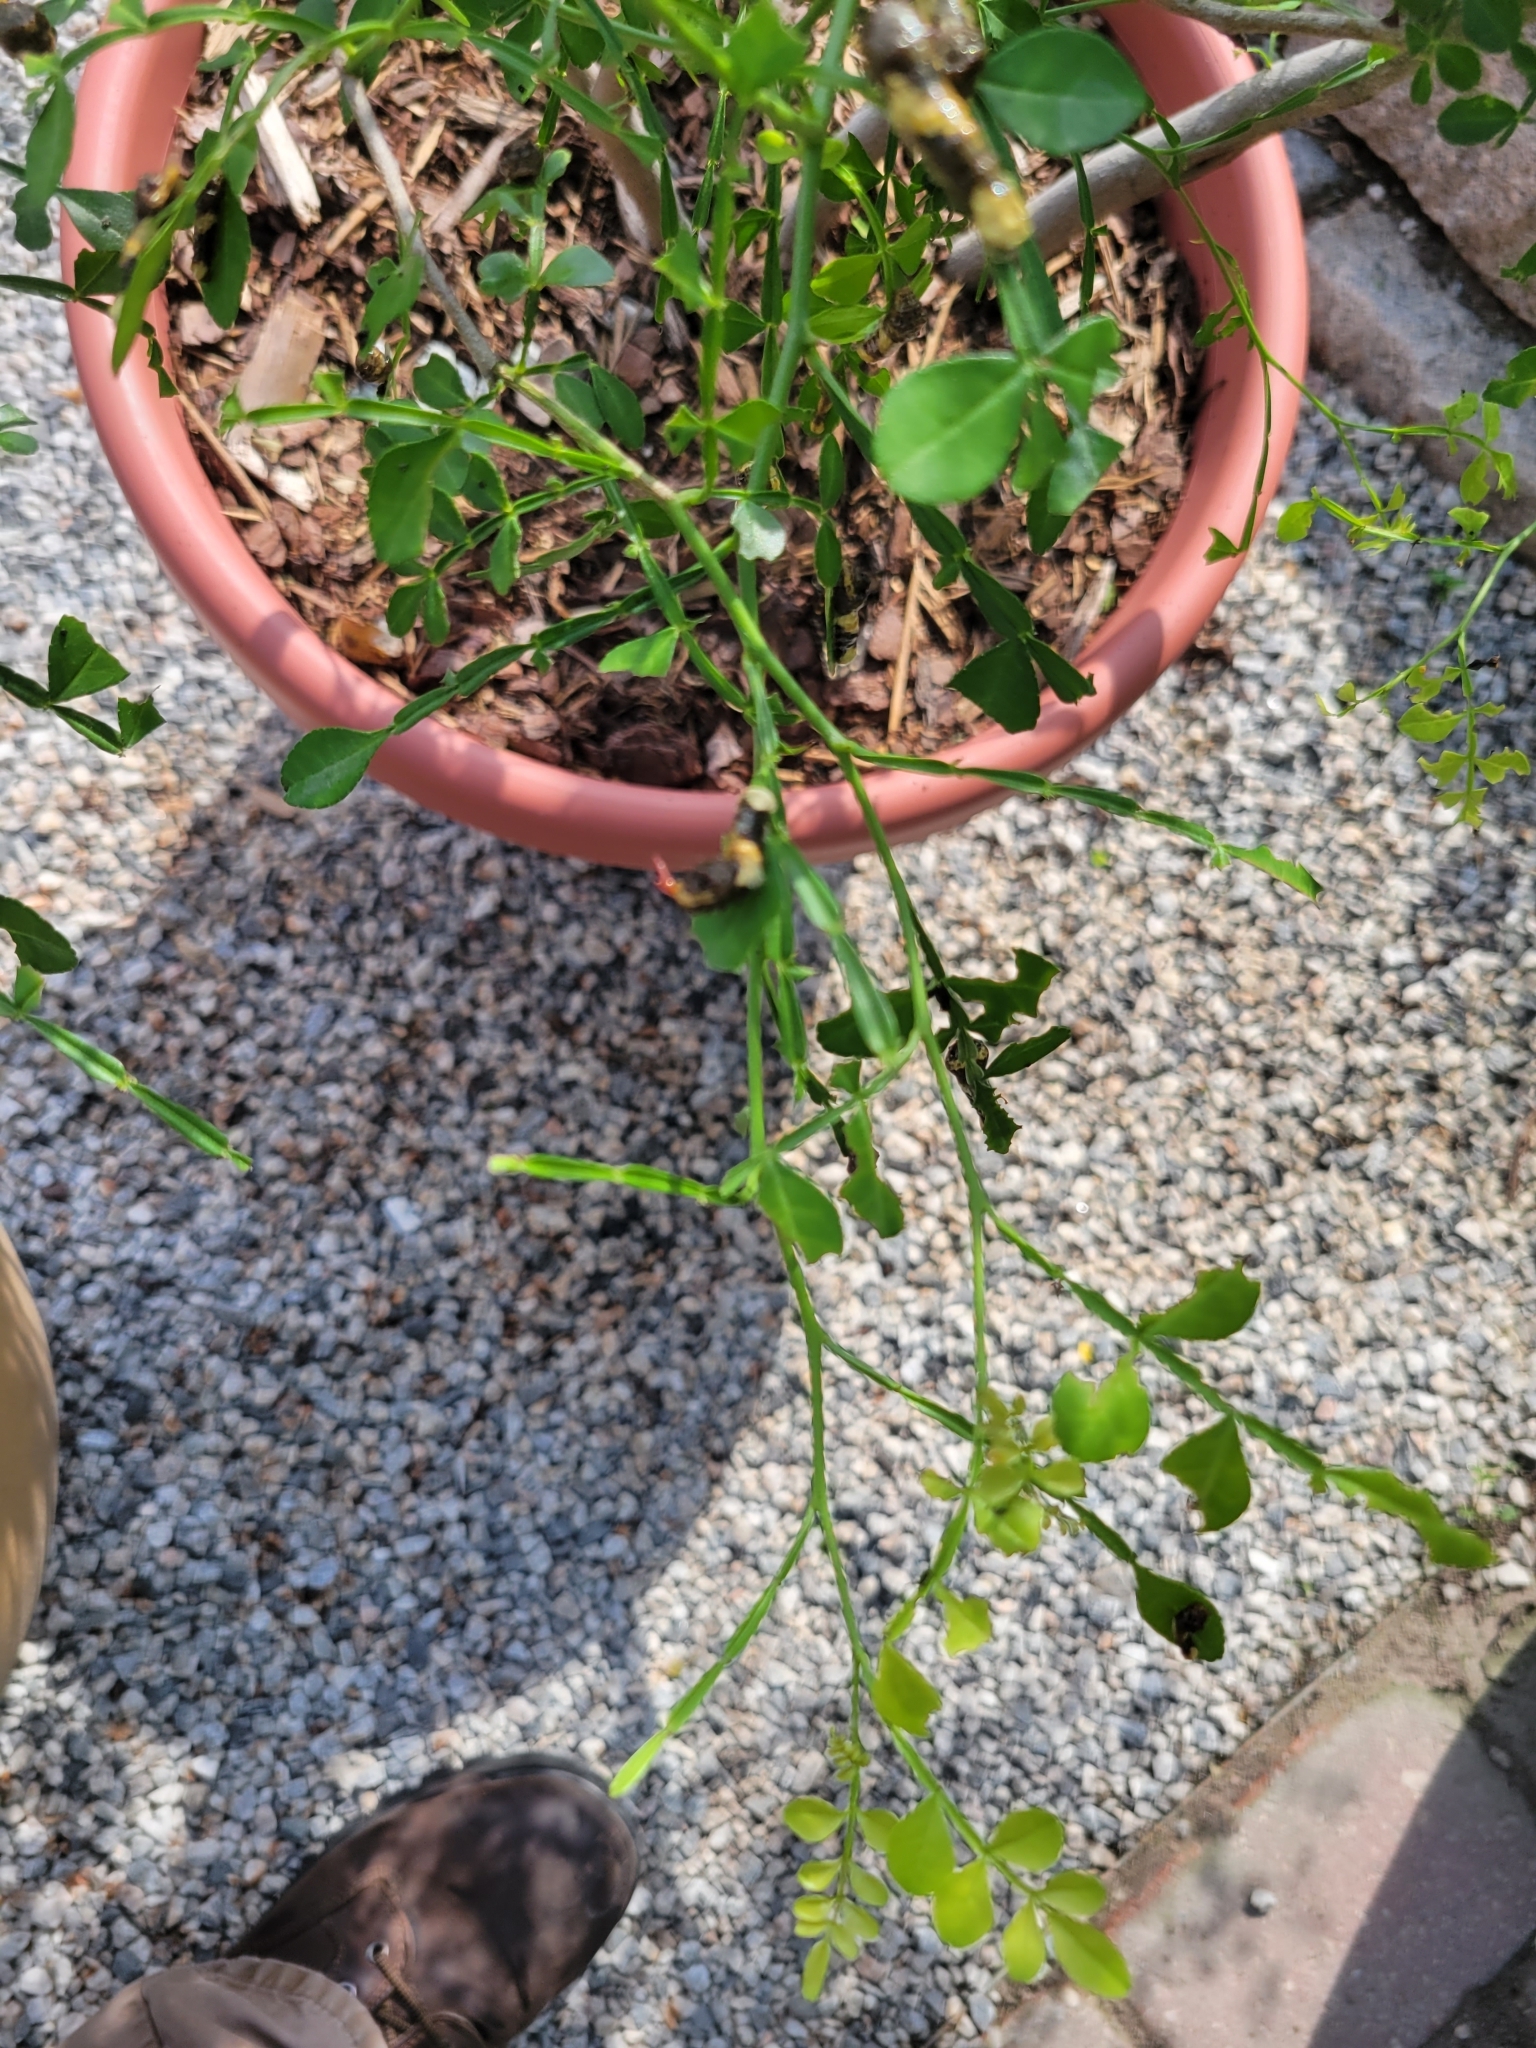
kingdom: Animalia
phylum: Arthropoda
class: Insecta
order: Lepidoptera
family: Papilionidae
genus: Papilio
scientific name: Papilio cresphontes
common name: Giant swallowtail
